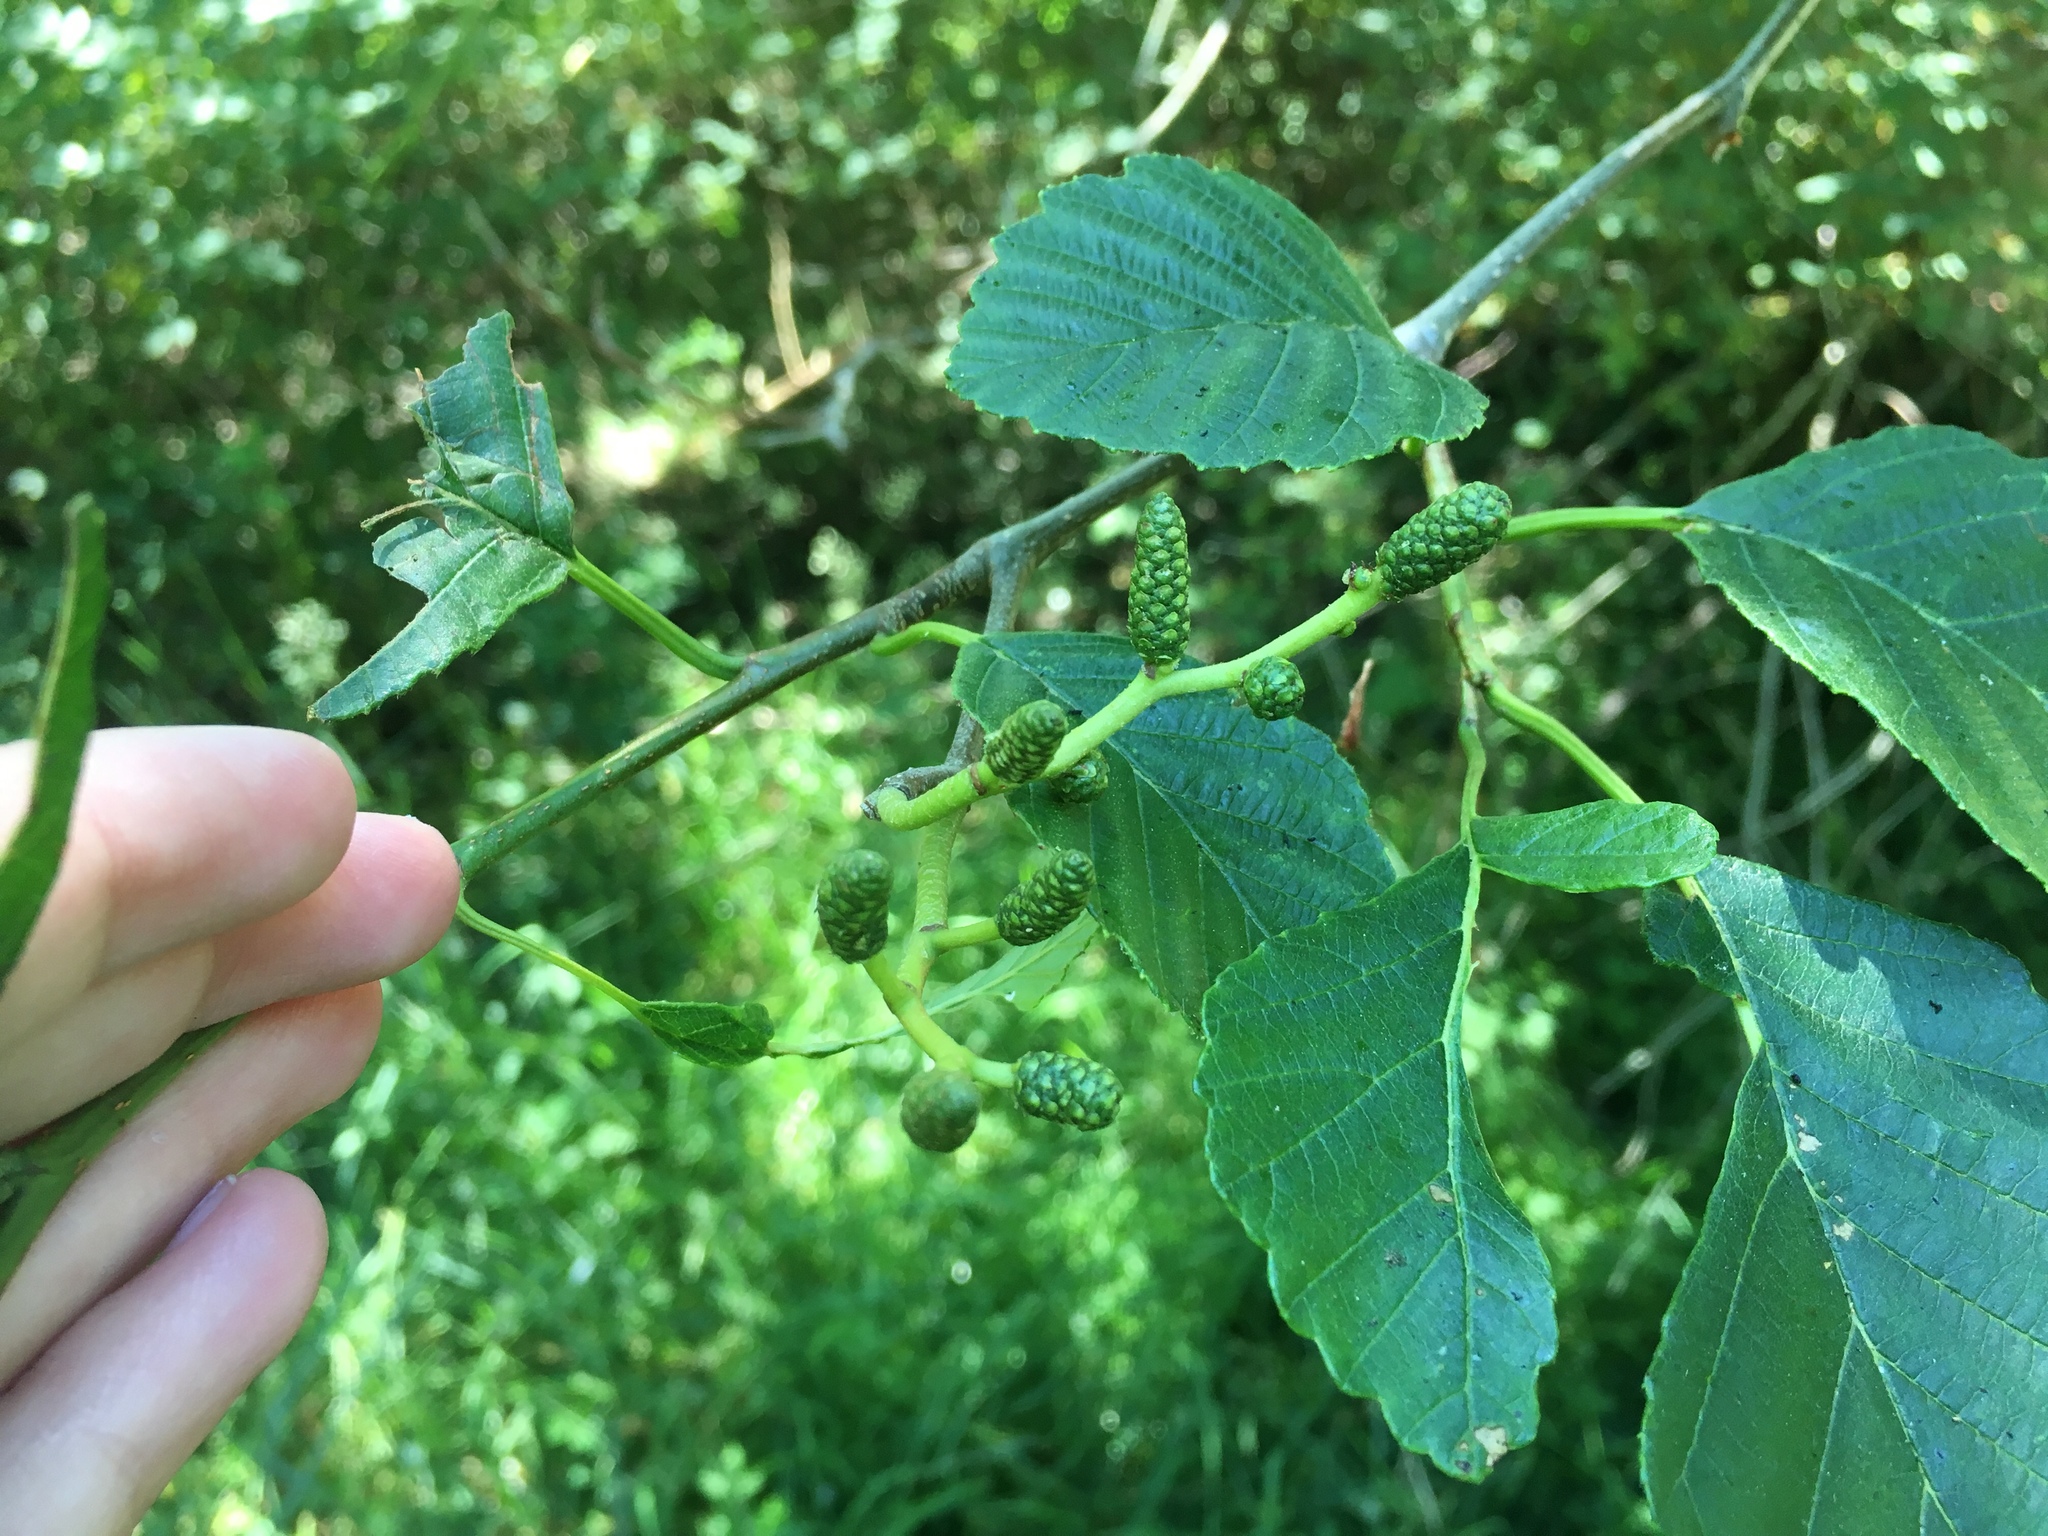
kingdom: Plantae
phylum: Tracheophyta
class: Magnoliopsida
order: Fagales
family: Betulaceae
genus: Alnus
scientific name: Alnus rubra
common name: Red alder
